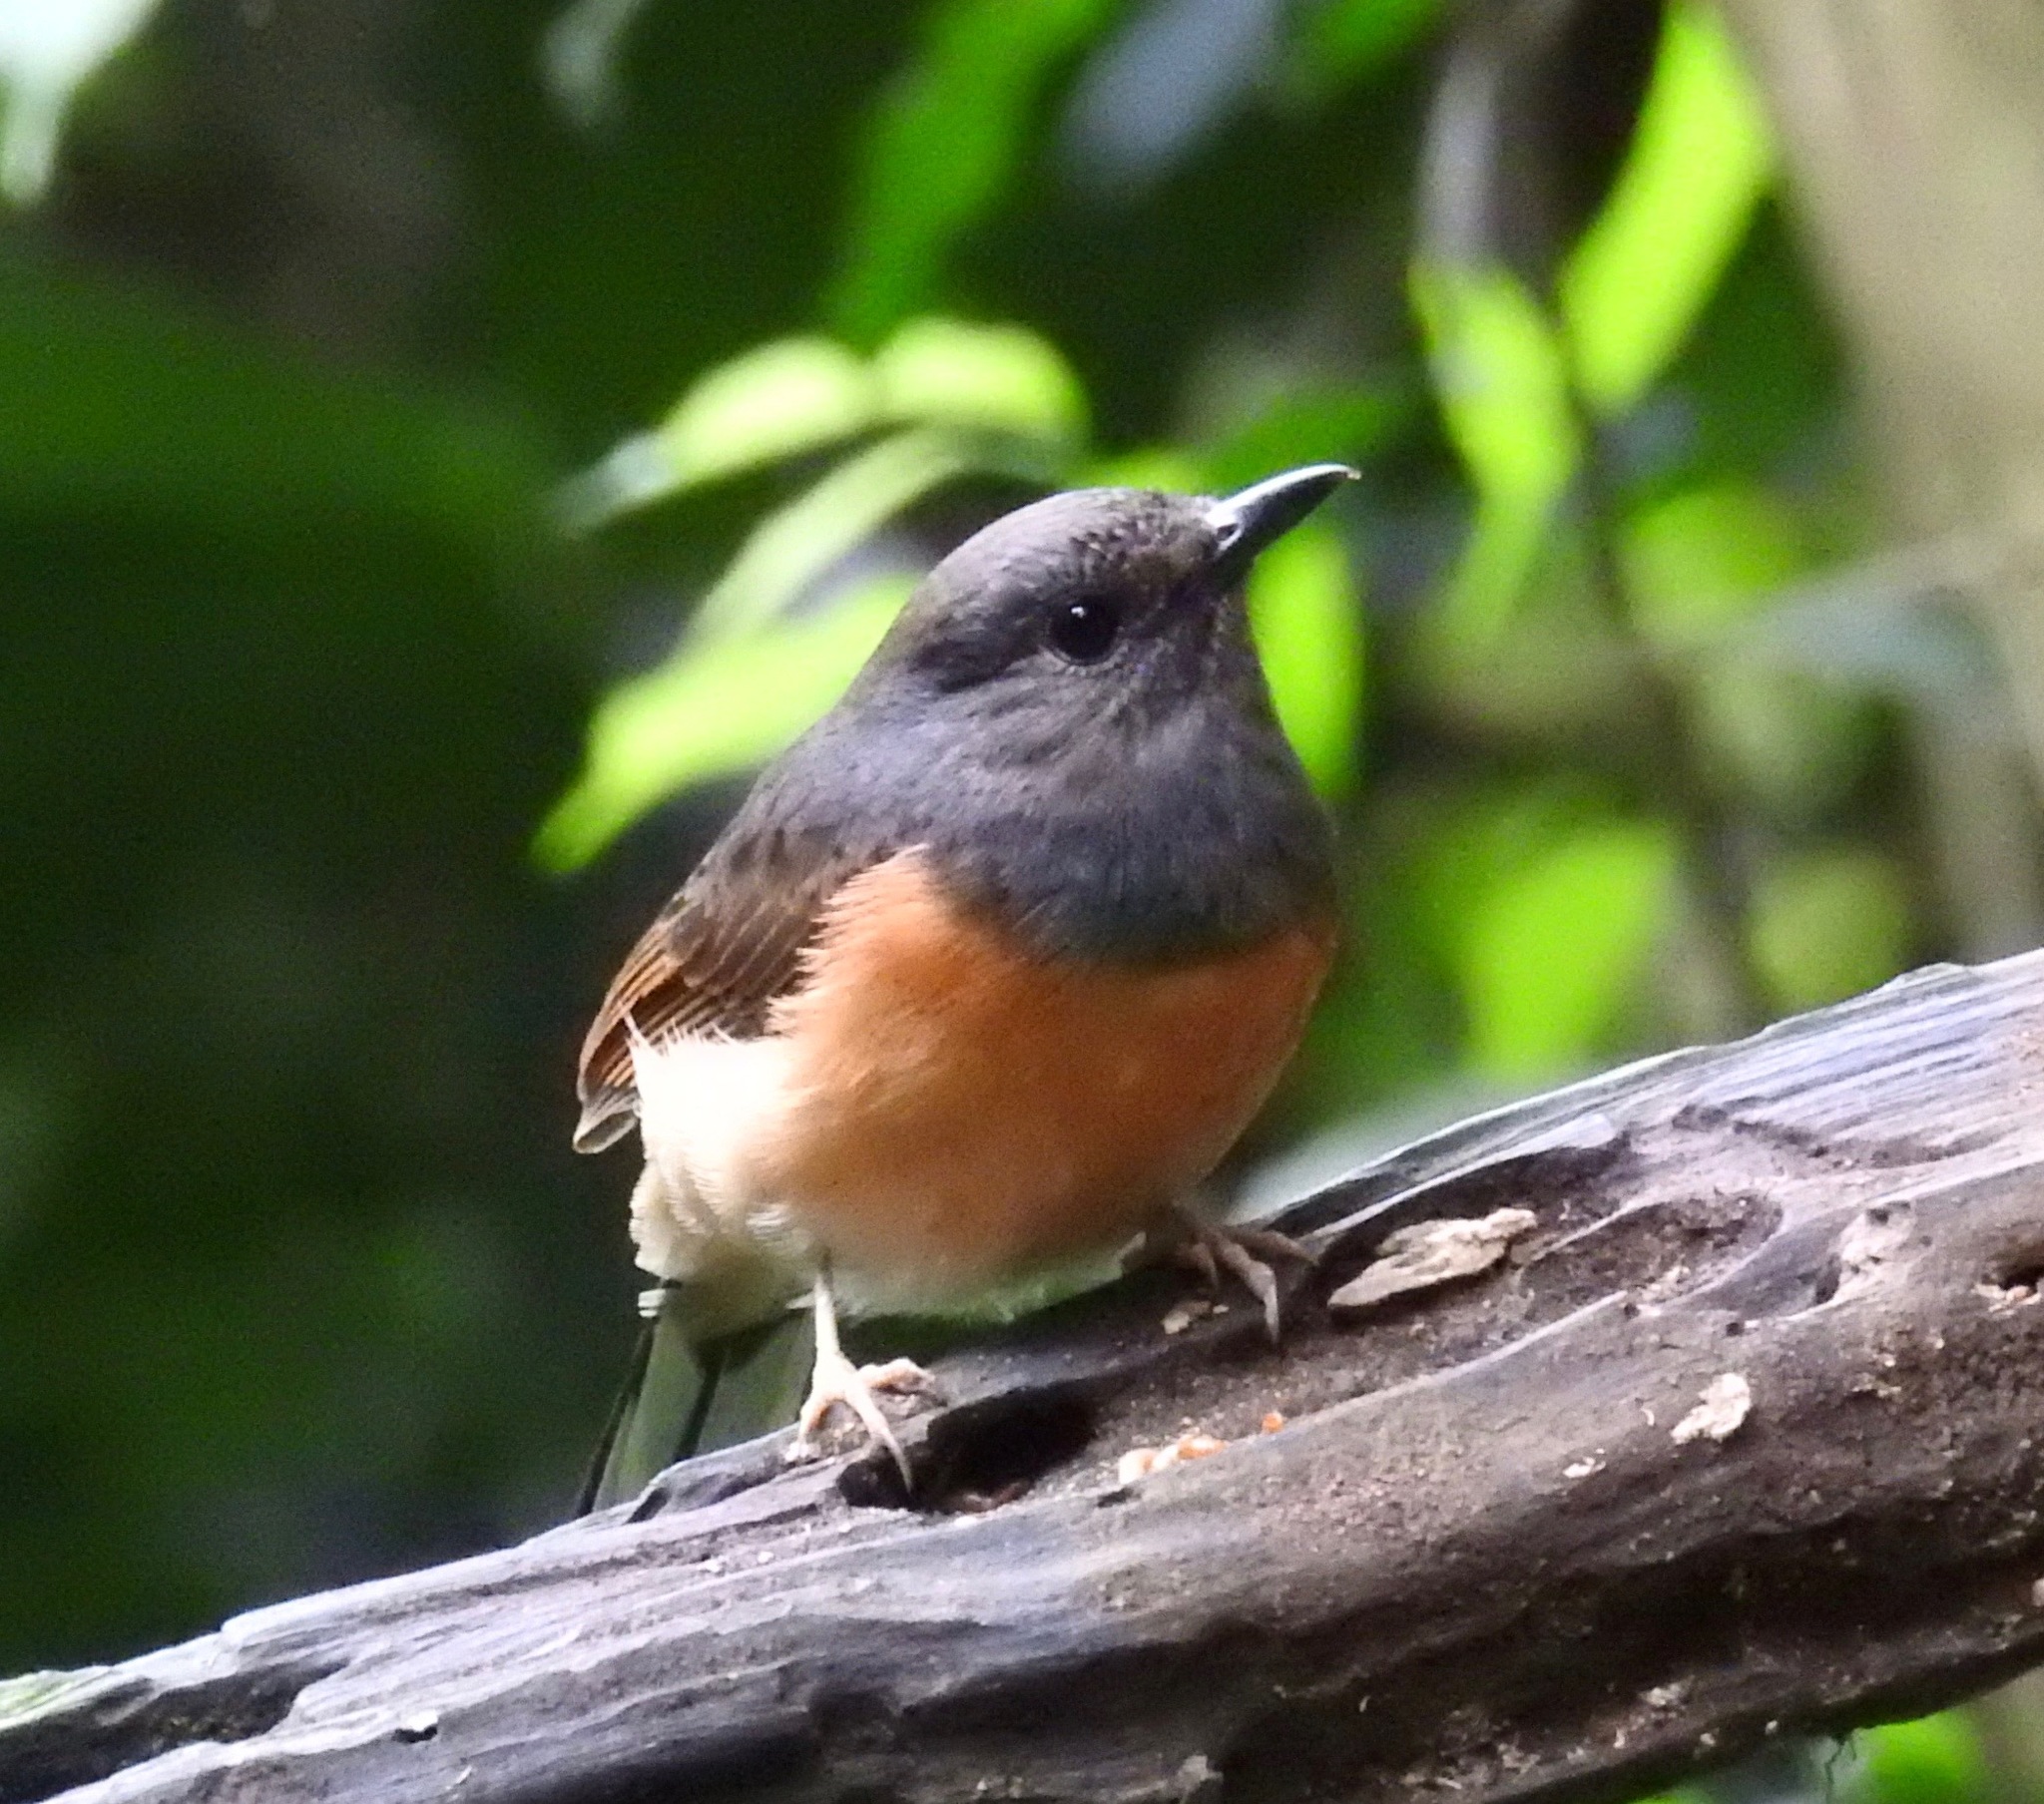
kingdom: Animalia
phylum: Chordata
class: Aves
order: Passeriformes
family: Muscicapidae
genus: Copsychus
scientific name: Copsychus malabaricus
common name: White-rumped shama
